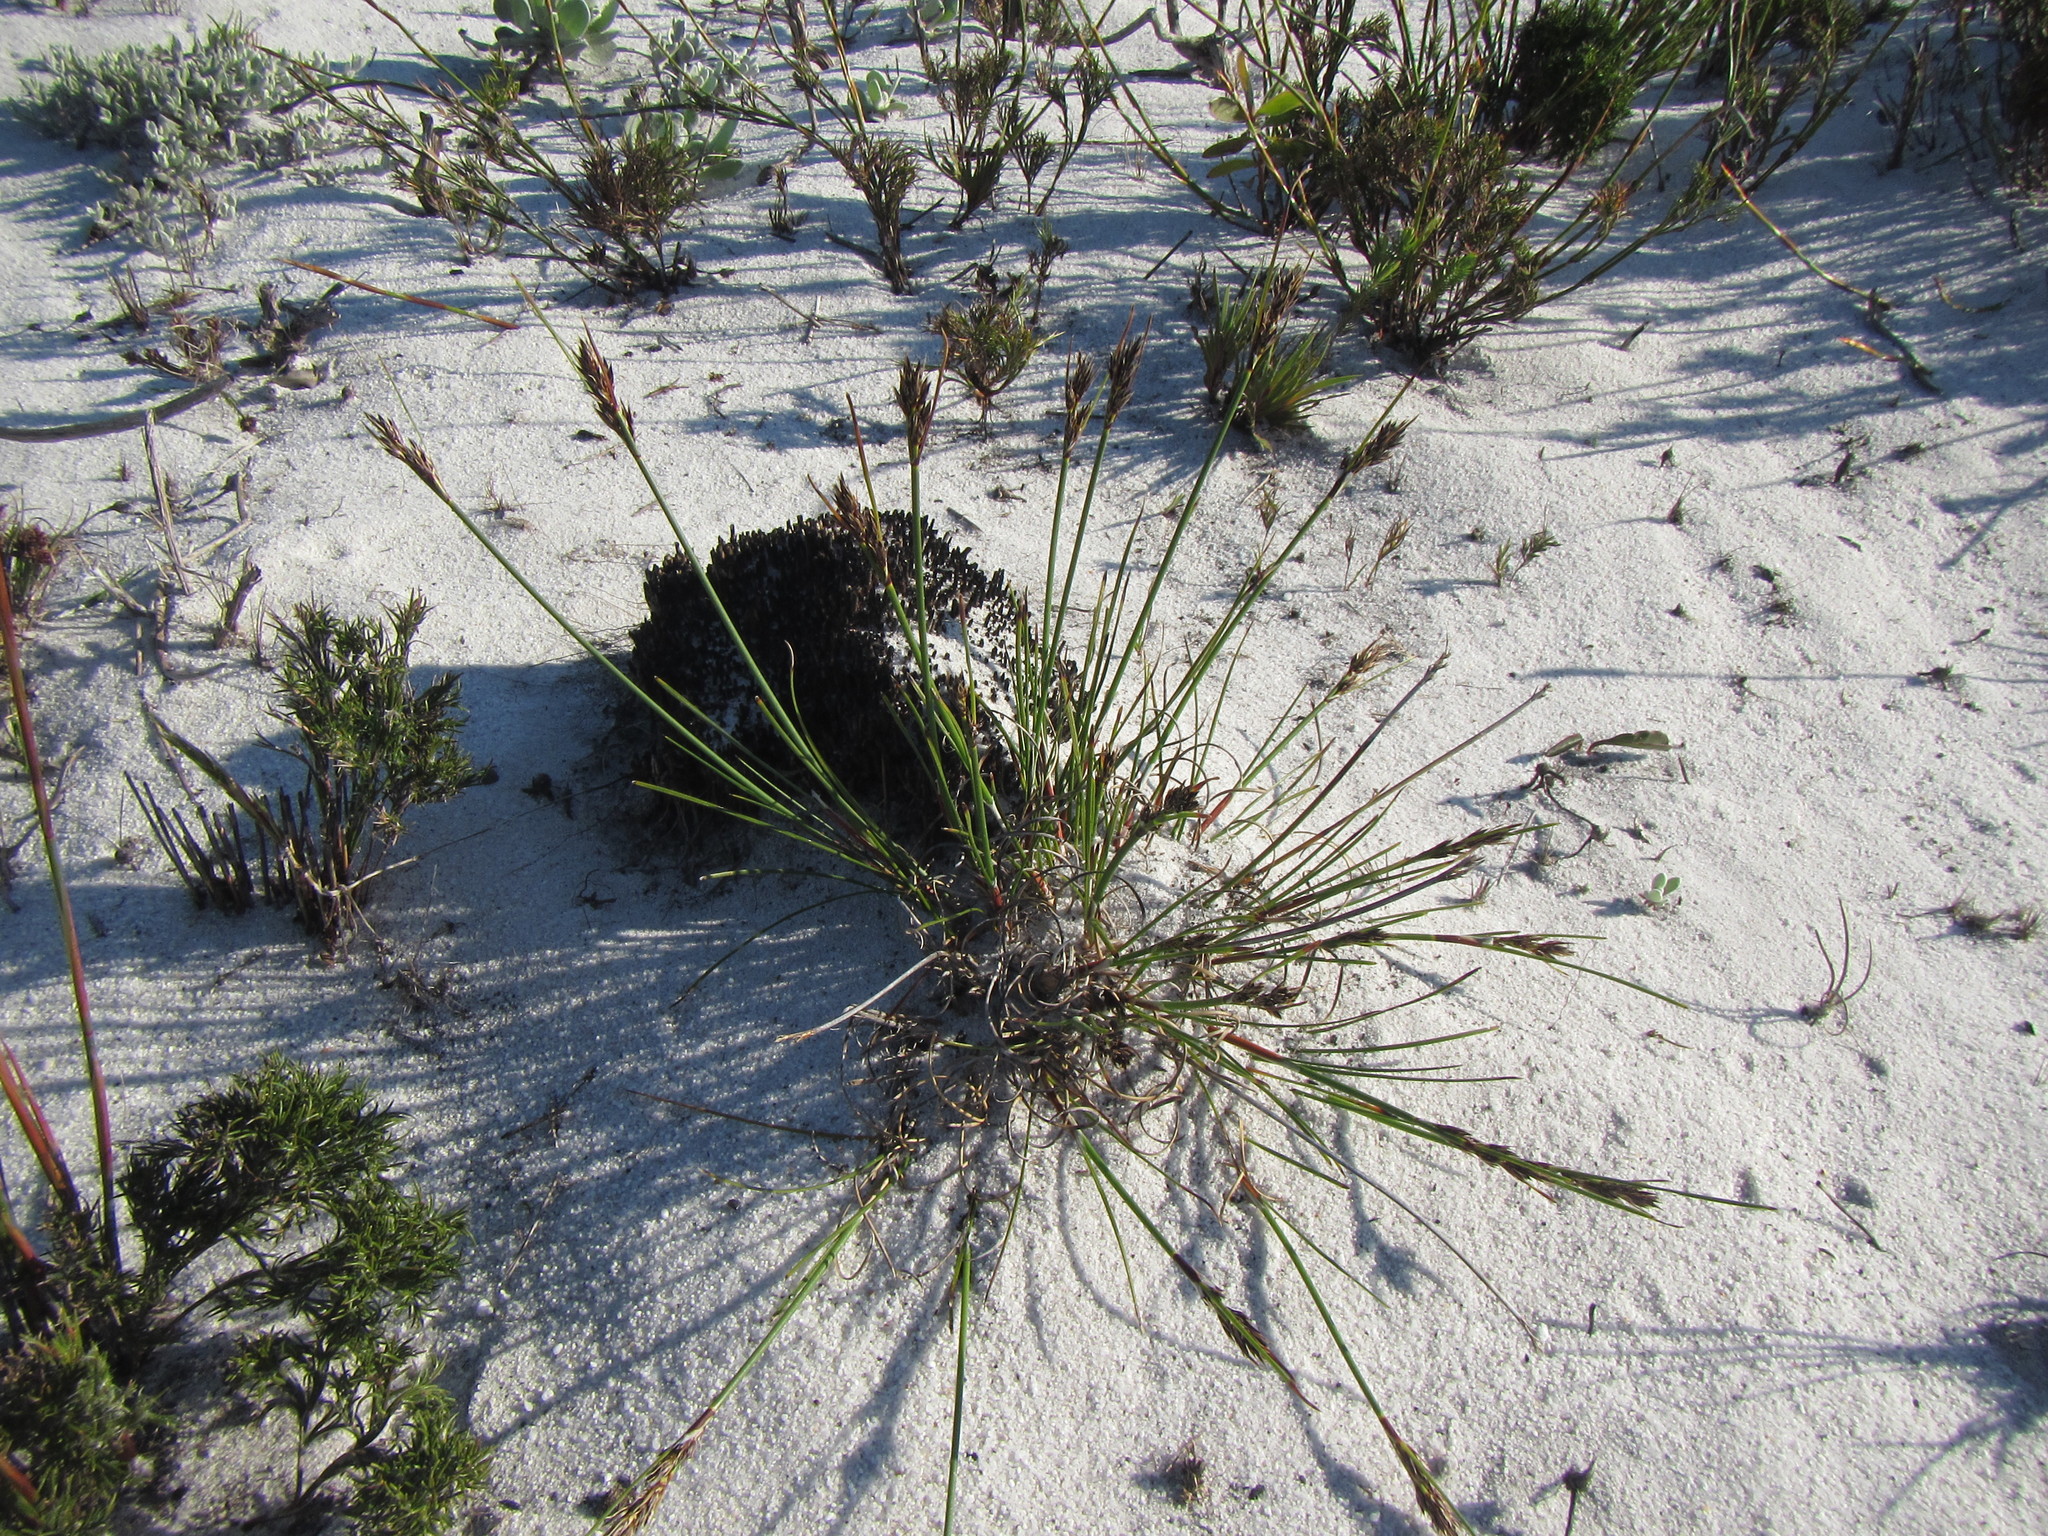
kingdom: Plantae
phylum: Tracheophyta
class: Liliopsida
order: Poales
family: Cyperaceae
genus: Schoenus
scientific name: Schoenus auritus
